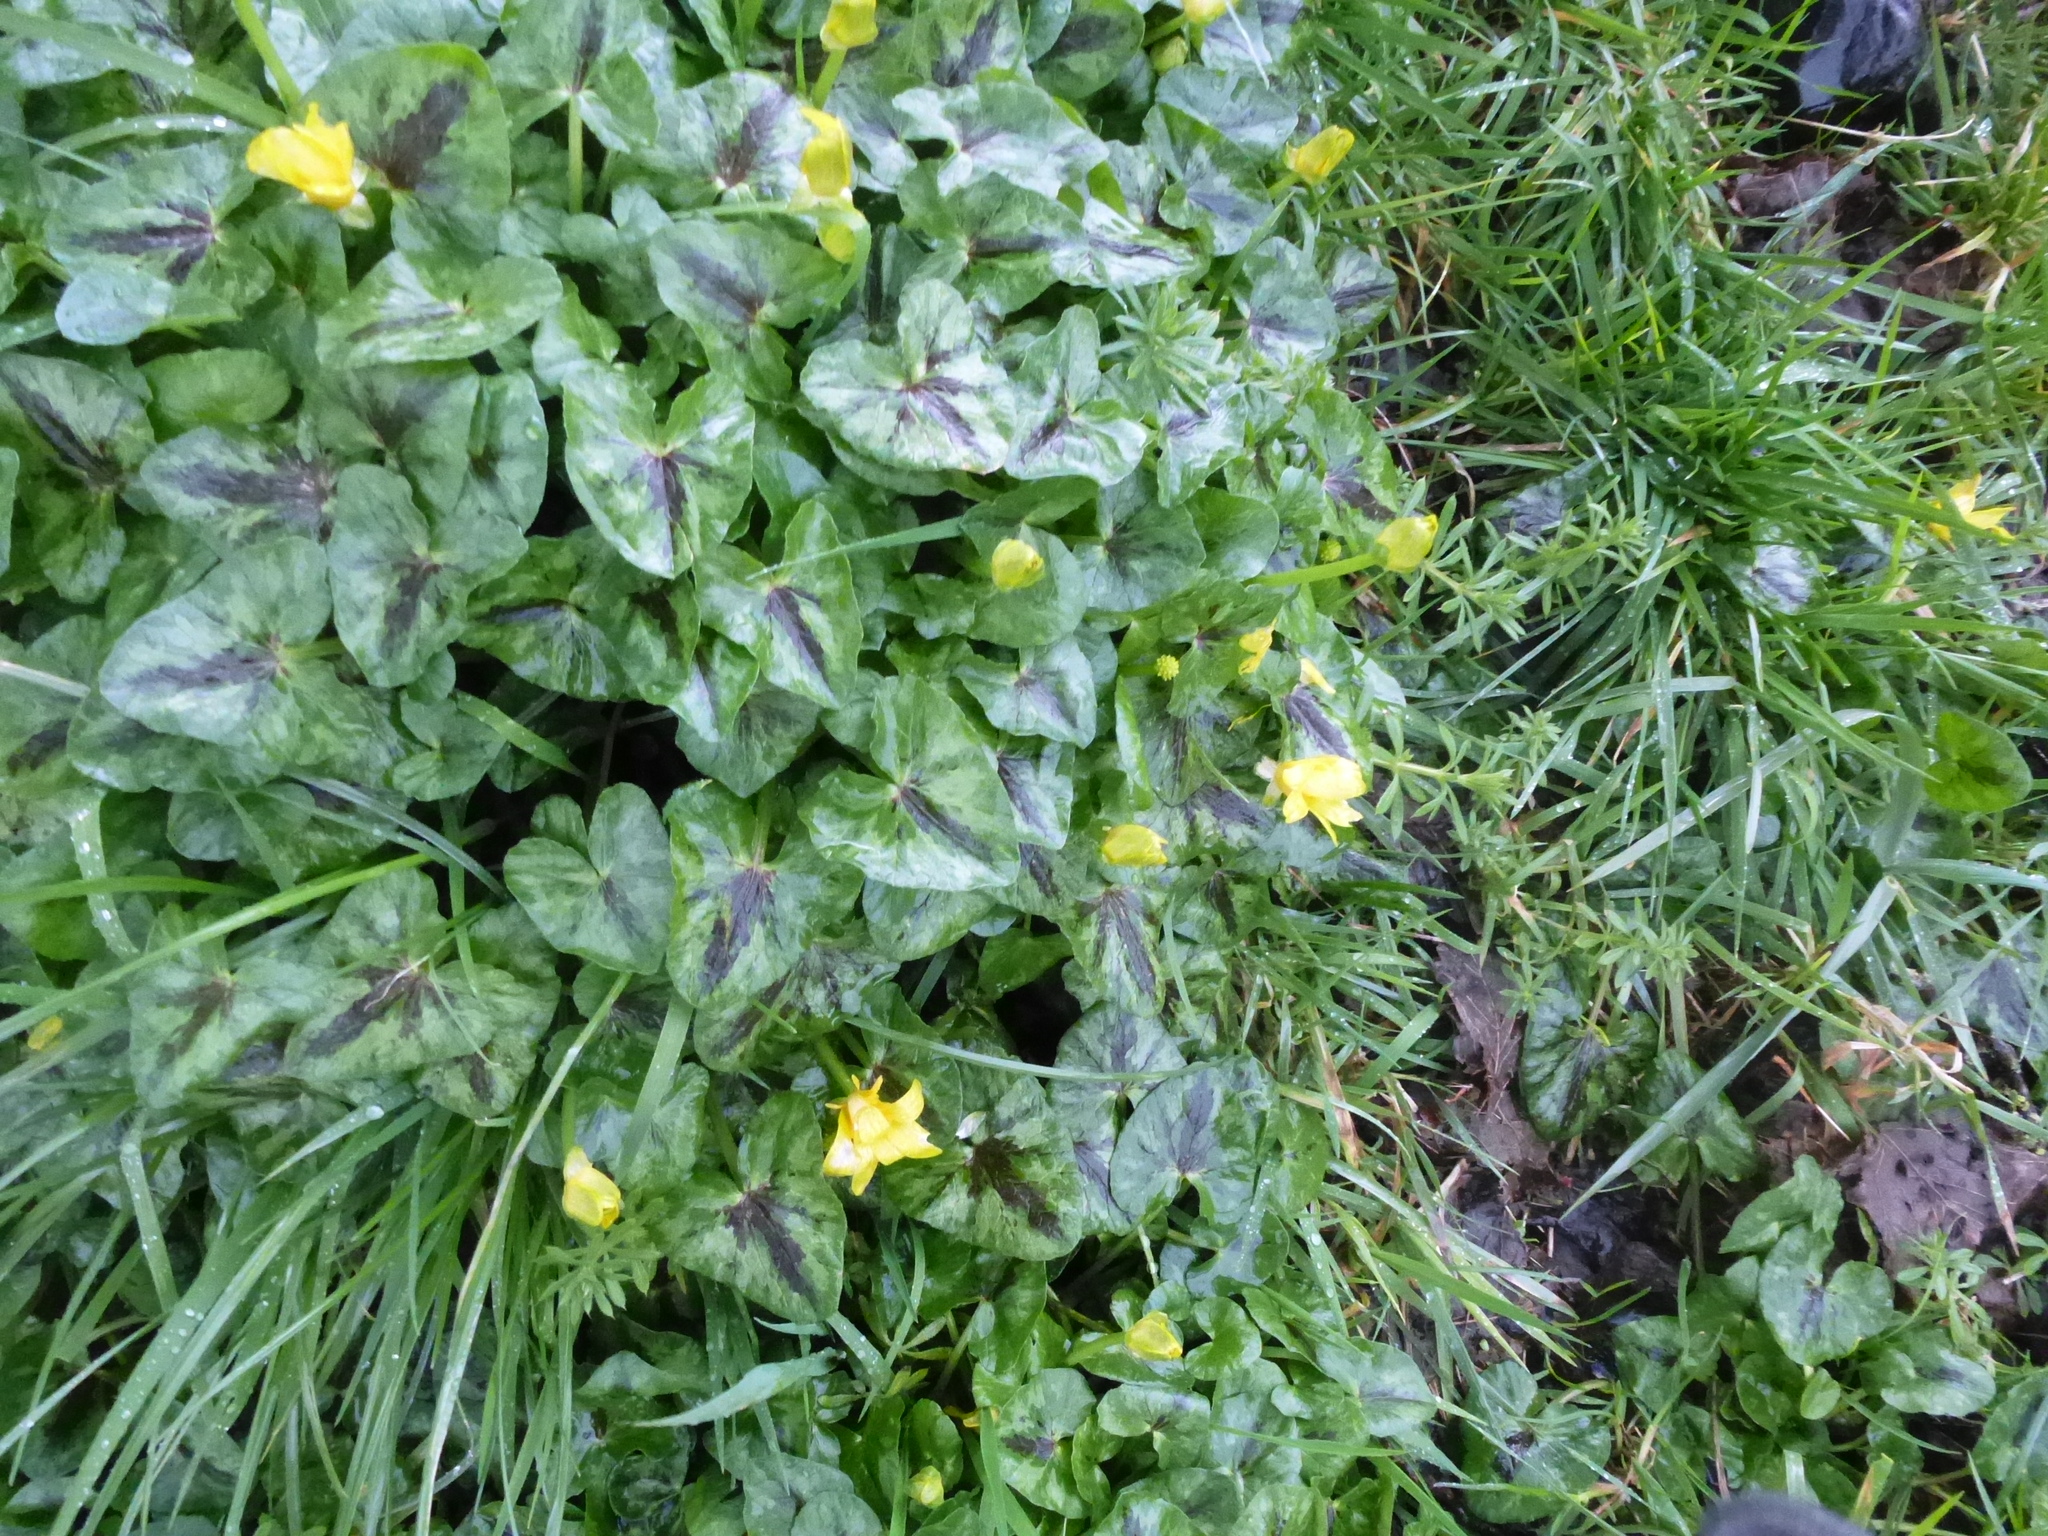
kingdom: Plantae
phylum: Tracheophyta
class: Magnoliopsida
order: Ranunculales
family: Ranunculaceae
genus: Ficaria
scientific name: Ficaria verna
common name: Lesser celandine
